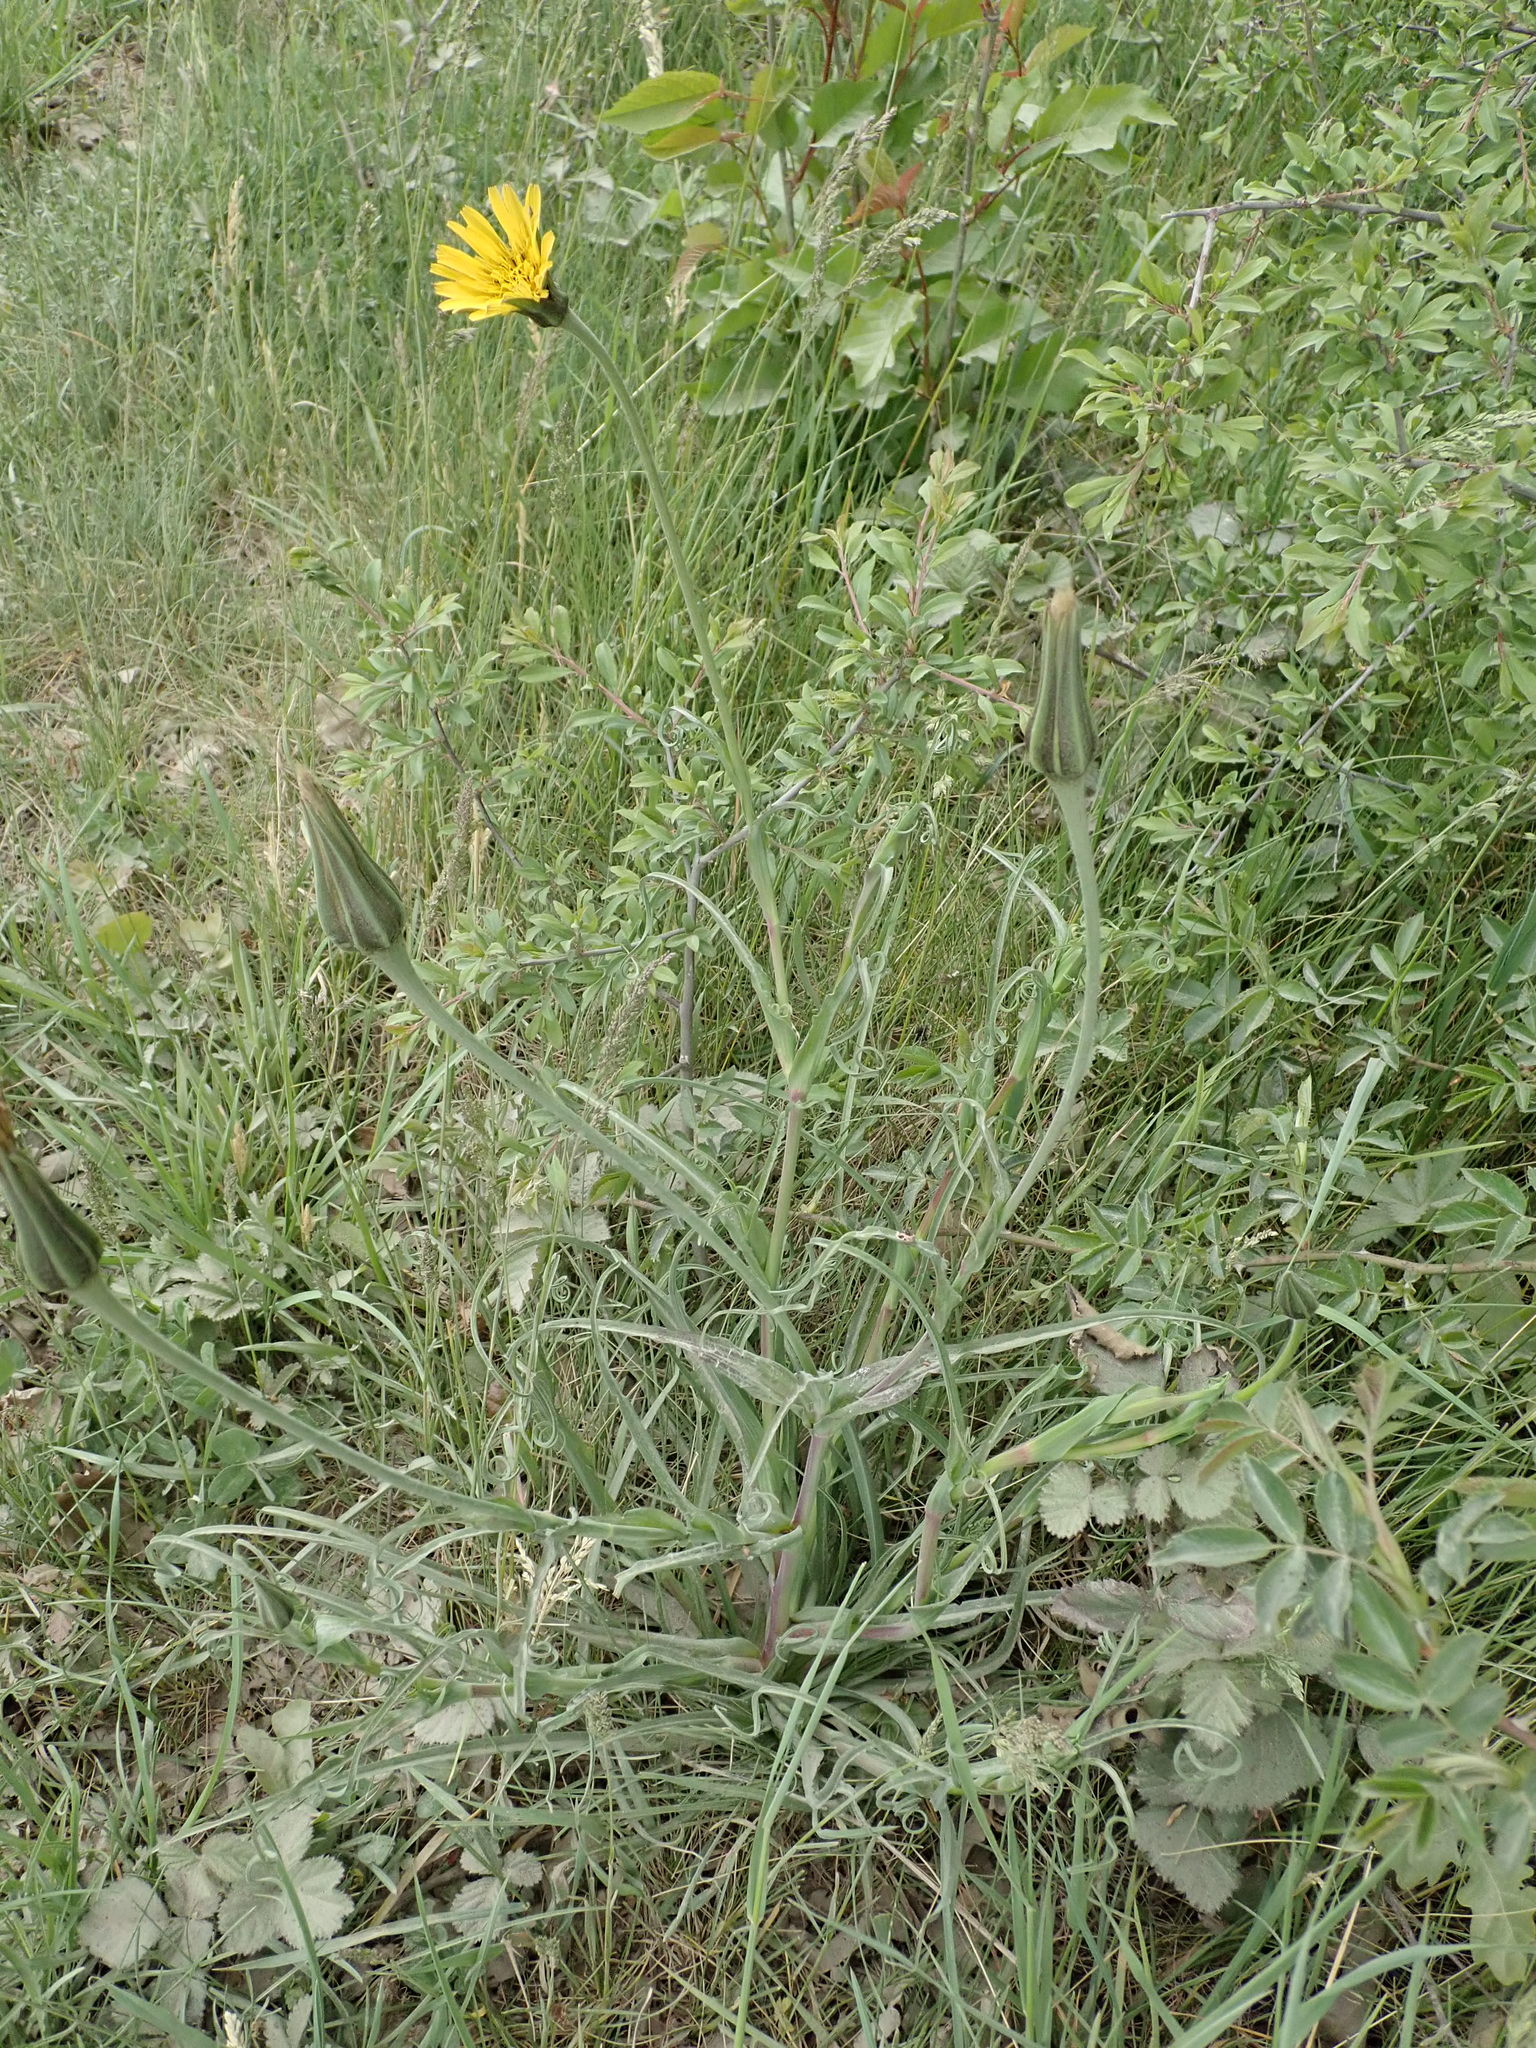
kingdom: Plantae
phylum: Tracheophyta
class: Magnoliopsida
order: Asterales
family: Asteraceae
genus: Tragopogon
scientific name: Tragopogon pratensis
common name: Goat's-beard
